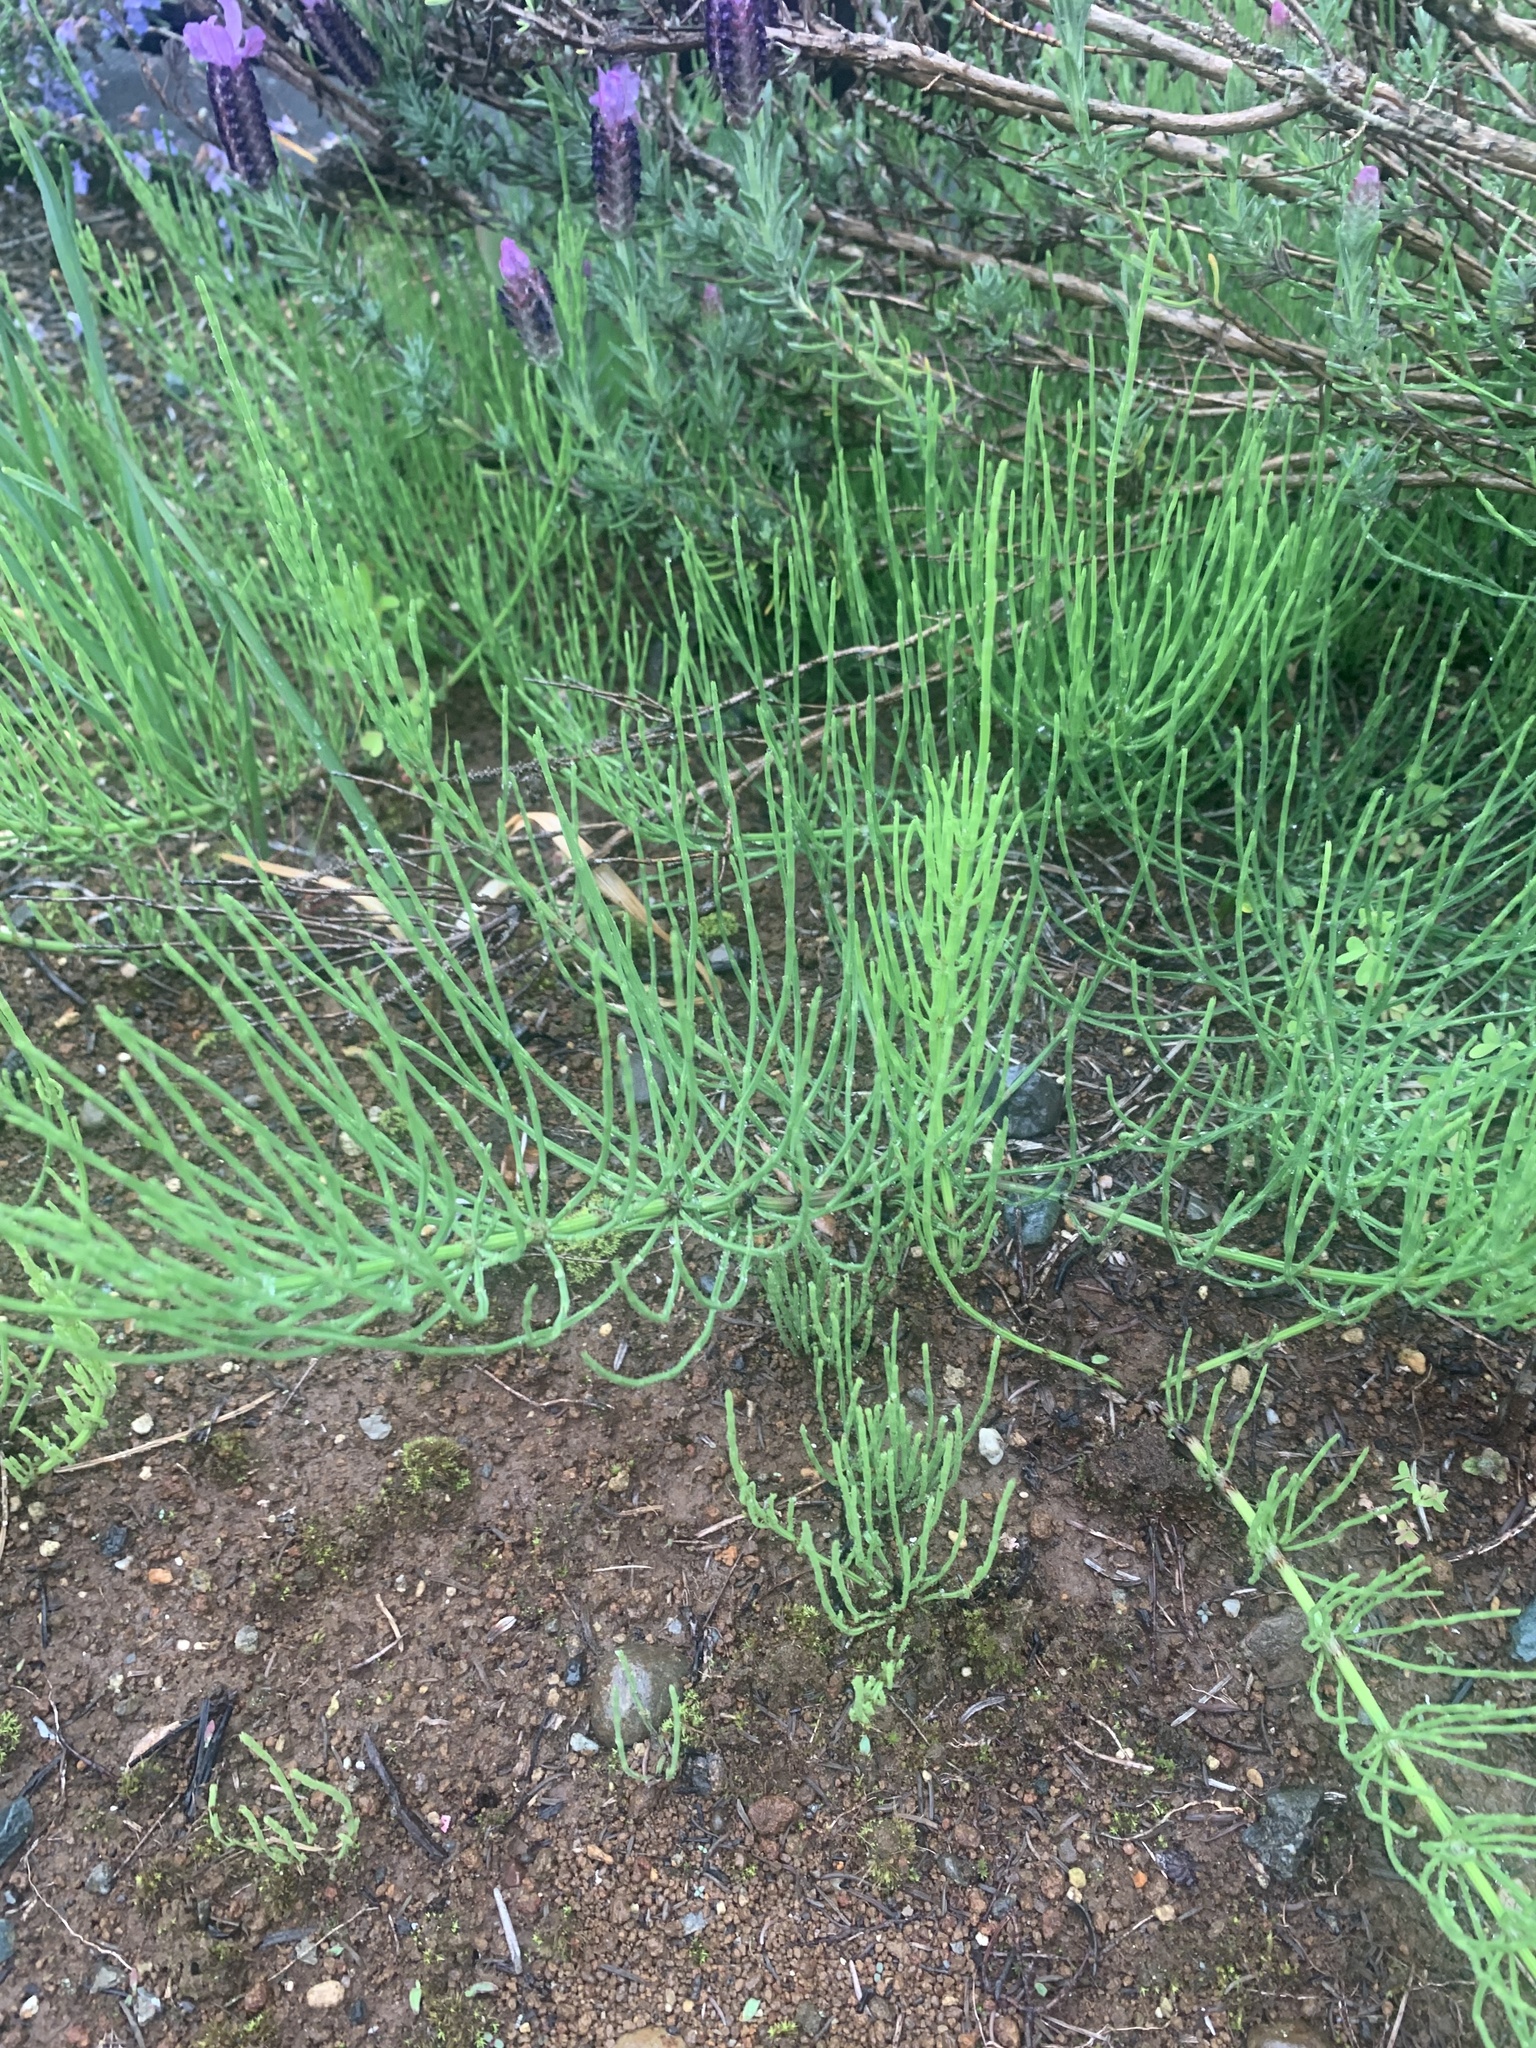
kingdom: Plantae
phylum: Tracheophyta
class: Polypodiopsida
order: Equisetales
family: Equisetaceae
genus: Equisetum
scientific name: Equisetum arvense
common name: Field horsetail
